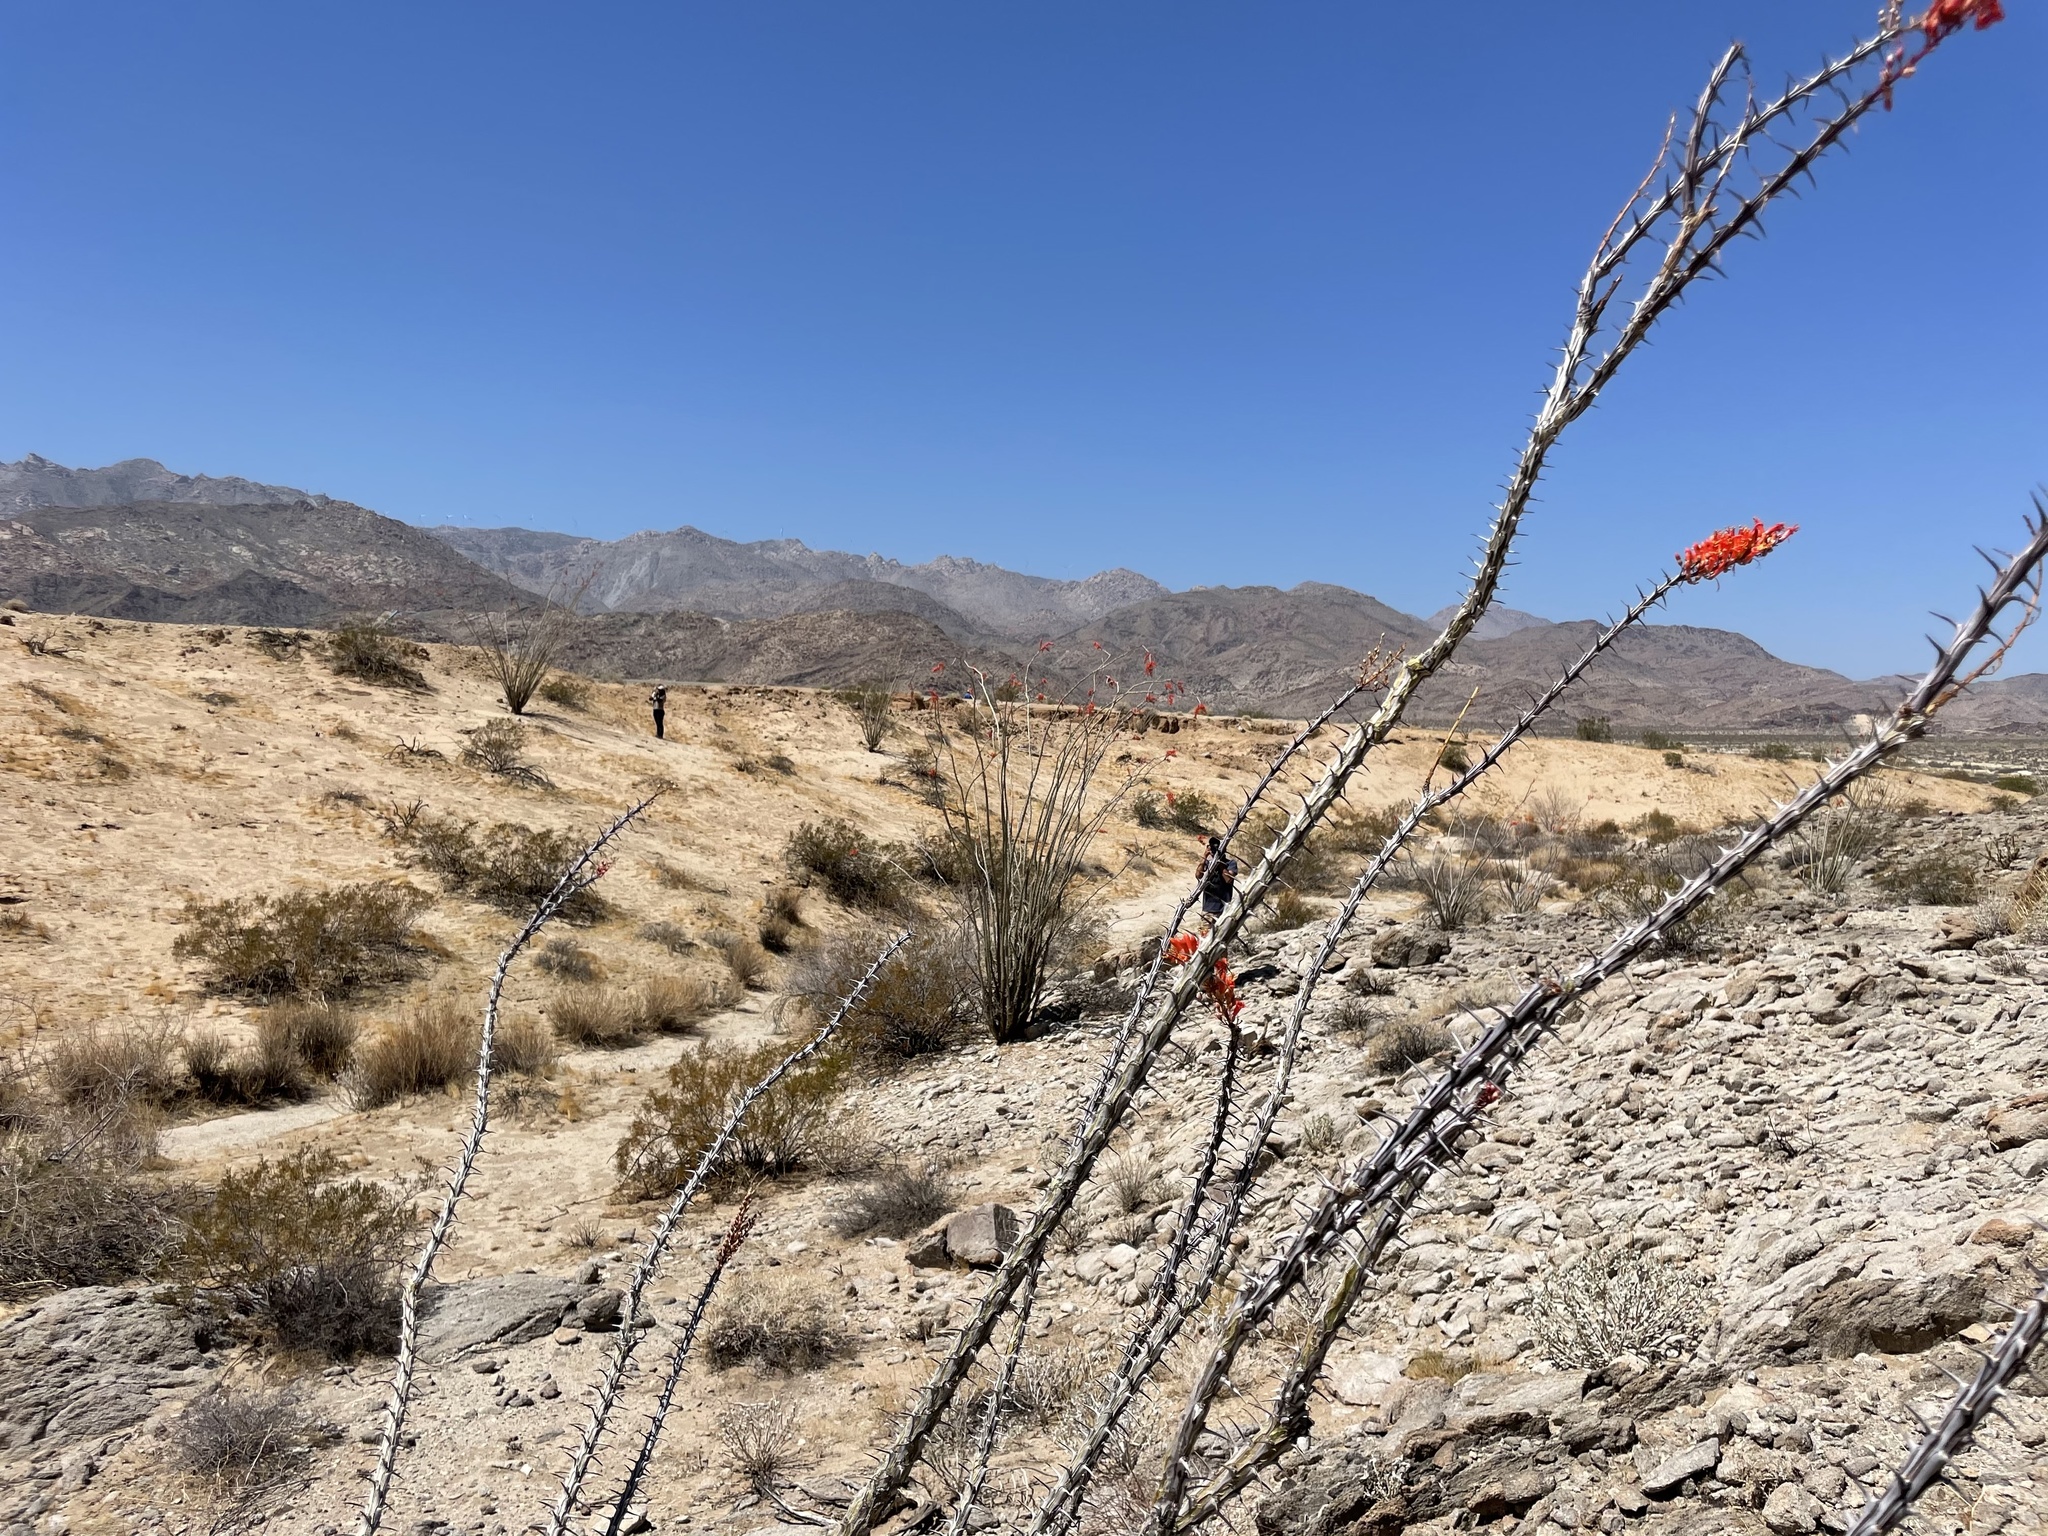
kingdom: Plantae
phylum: Tracheophyta
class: Magnoliopsida
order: Ericales
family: Fouquieriaceae
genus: Fouquieria
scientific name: Fouquieria splendens
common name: Vine-cactus
